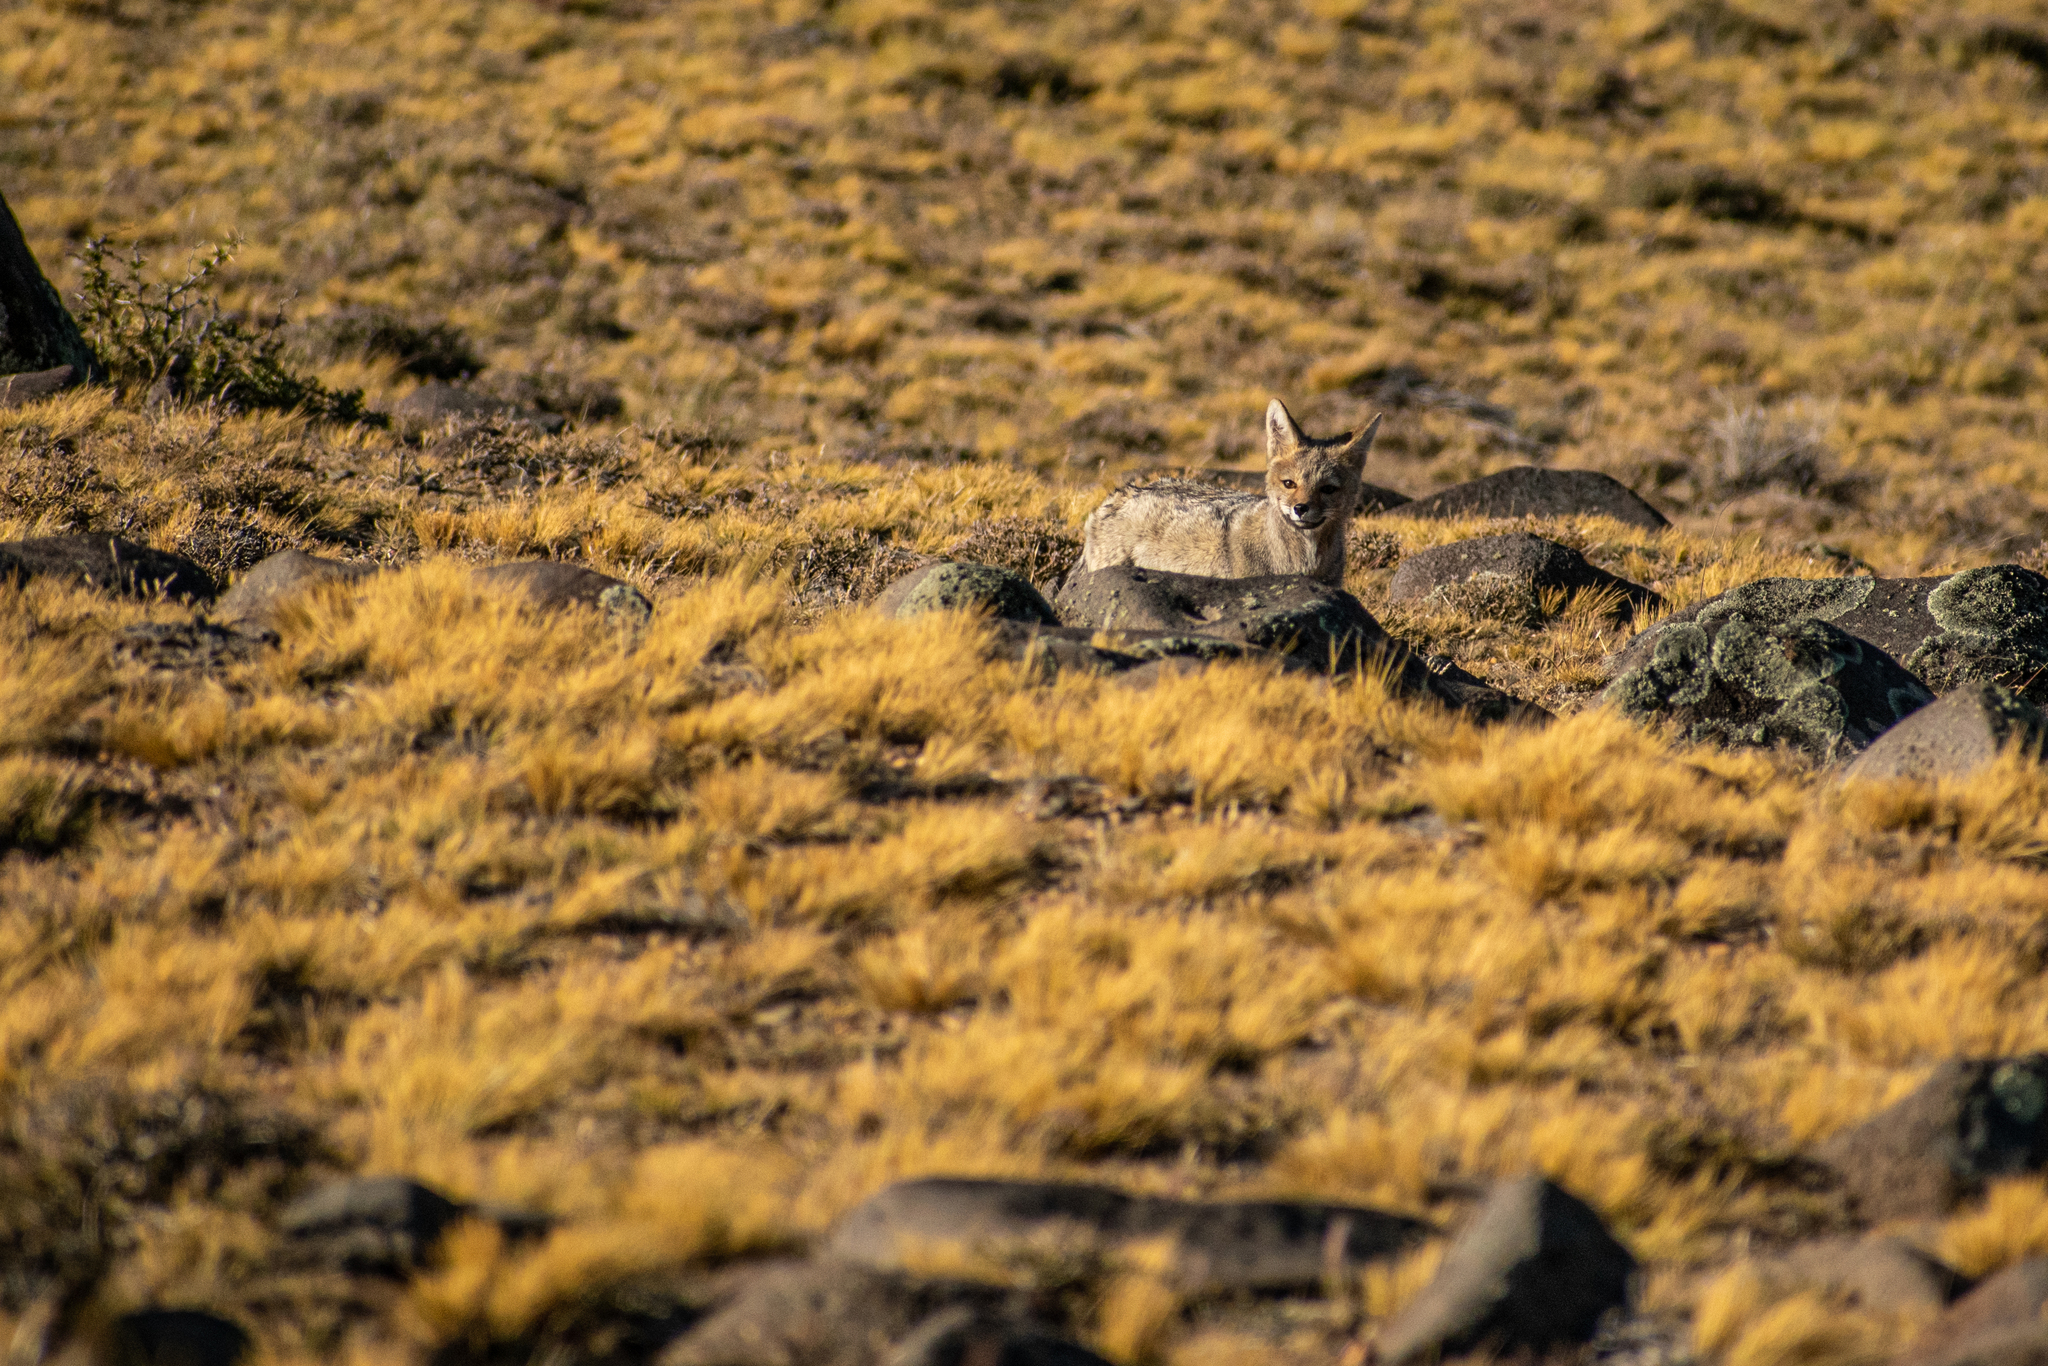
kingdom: Animalia
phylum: Chordata
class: Mammalia
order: Carnivora
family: Canidae
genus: Lycalopex
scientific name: Lycalopex gymnocercus
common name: Pampas fox
